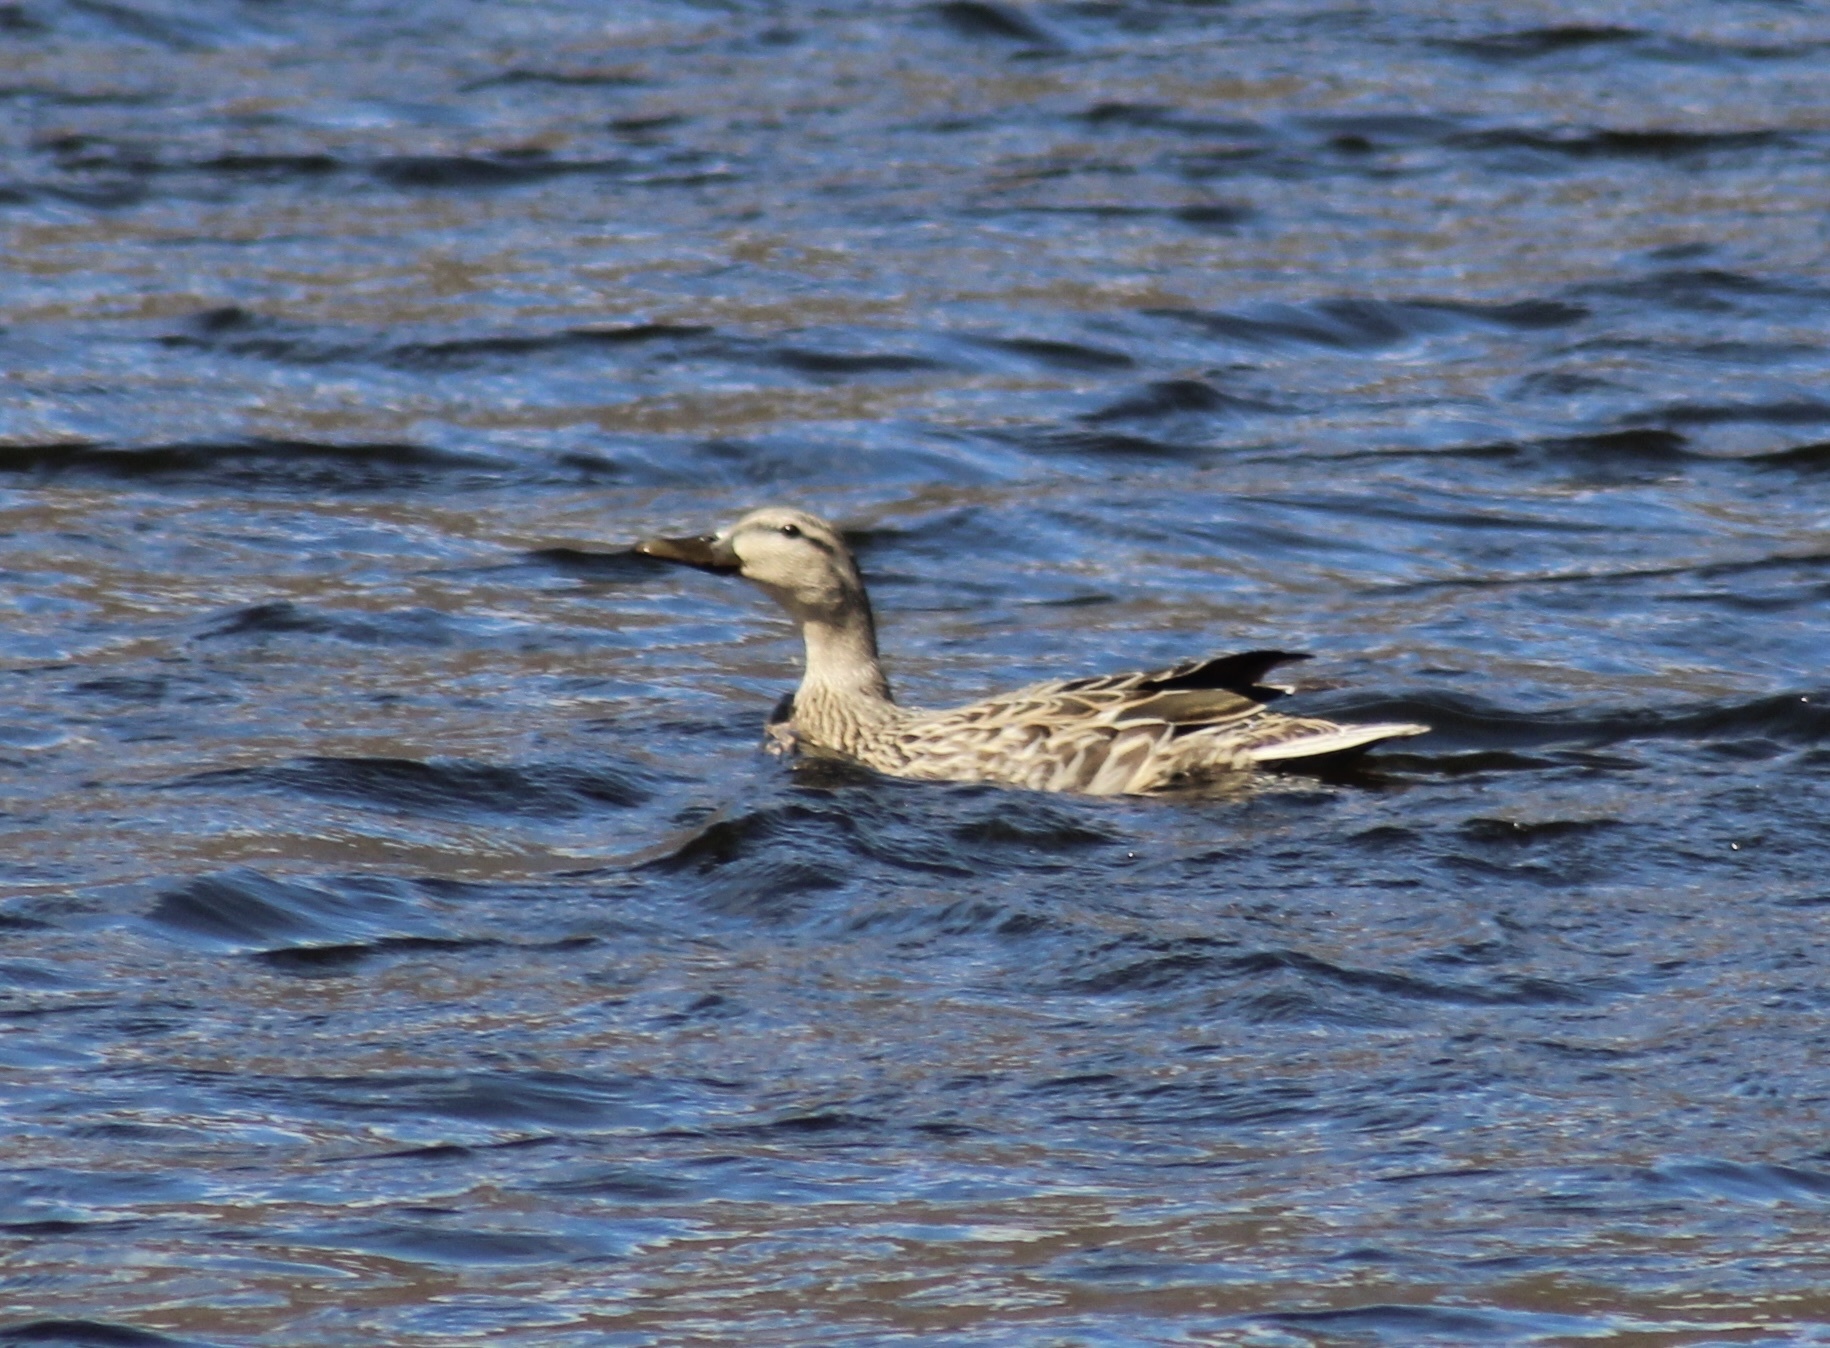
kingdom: Animalia
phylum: Chordata
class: Aves
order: Anseriformes
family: Anatidae
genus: Anas
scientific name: Anas platyrhynchos
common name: Mallard
